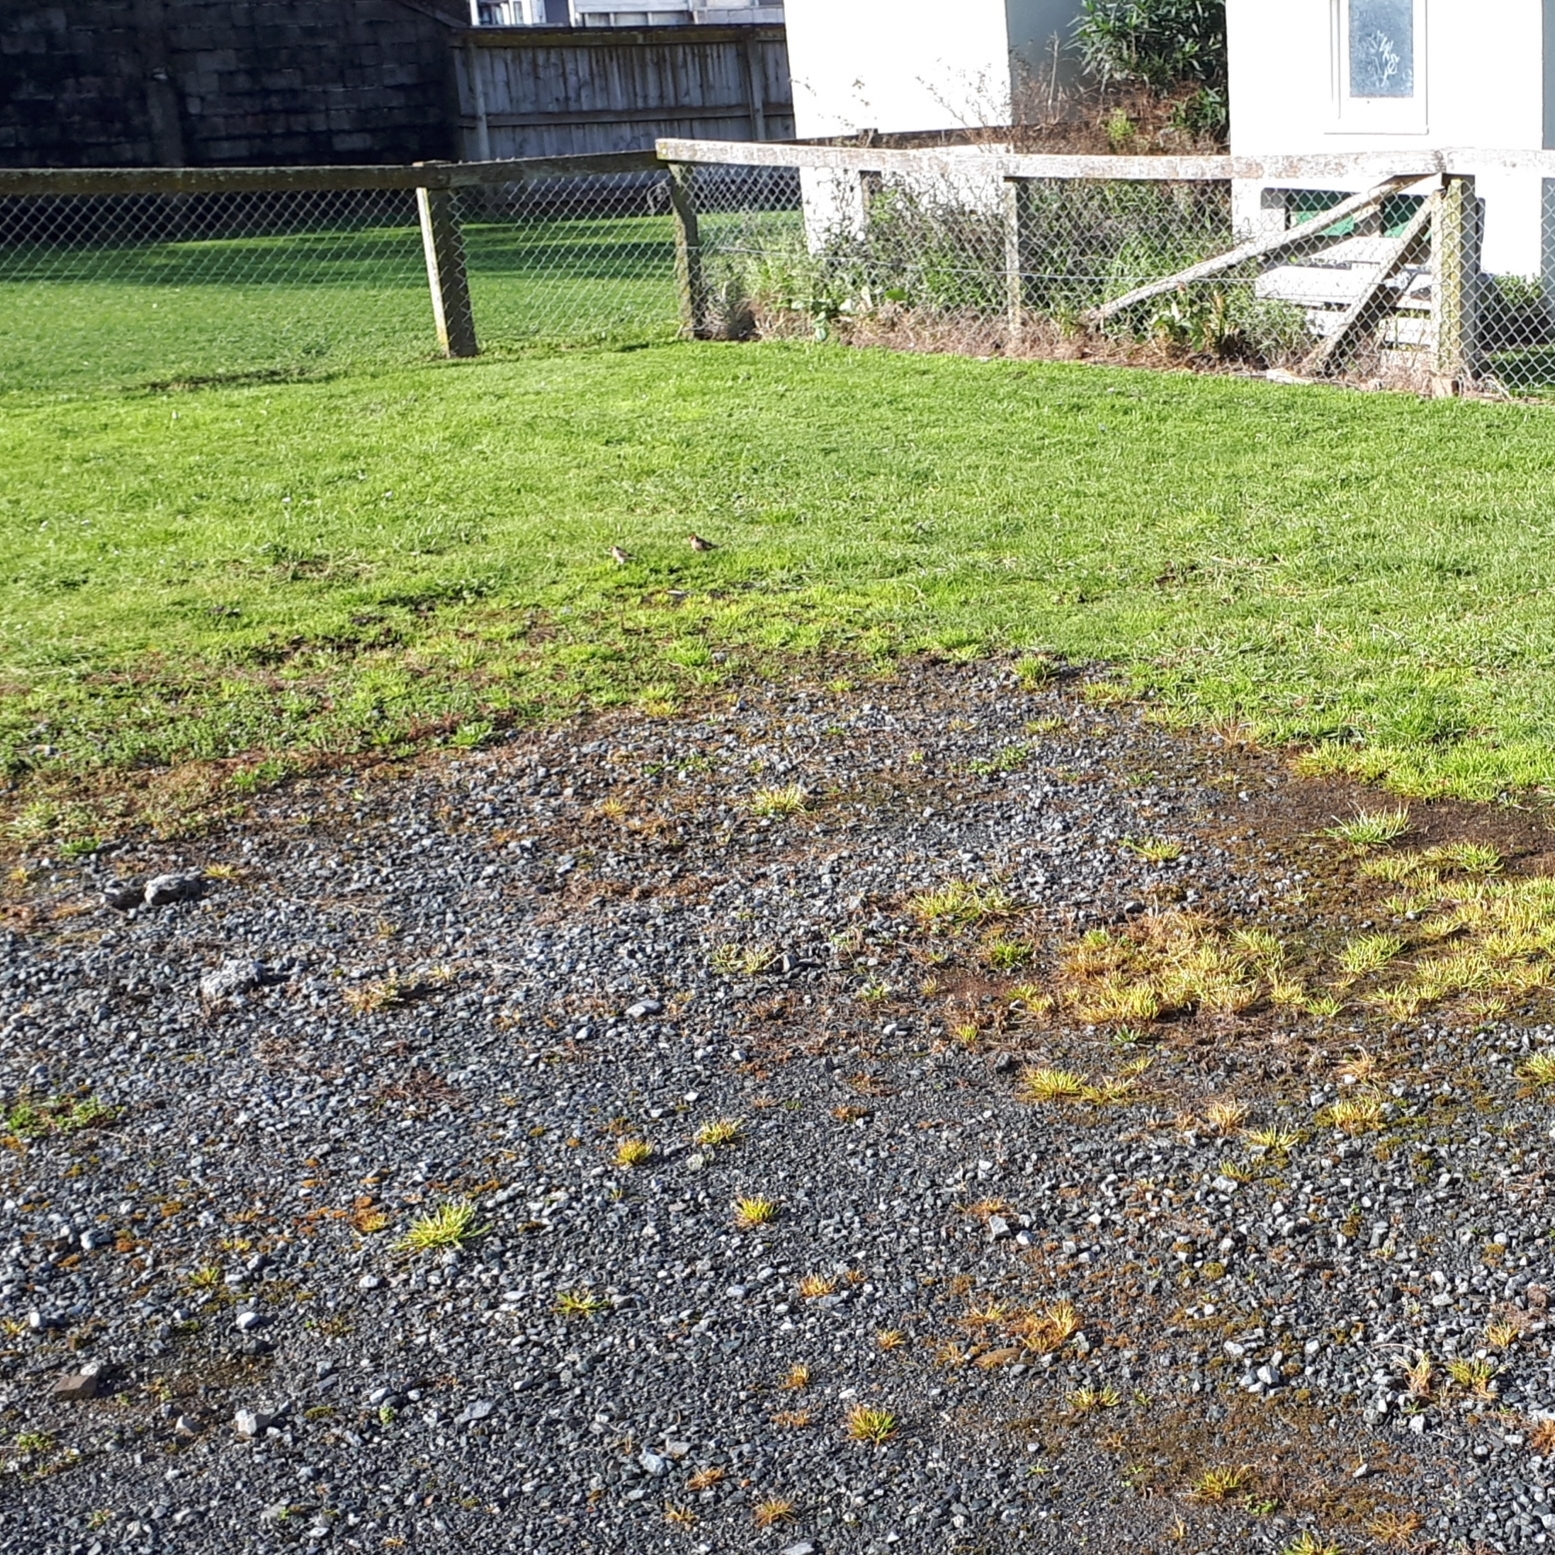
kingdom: Animalia
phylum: Chordata
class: Aves
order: Passeriformes
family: Fringillidae
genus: Carduelis
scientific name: Carduelis carduelis
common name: European goldfinch
